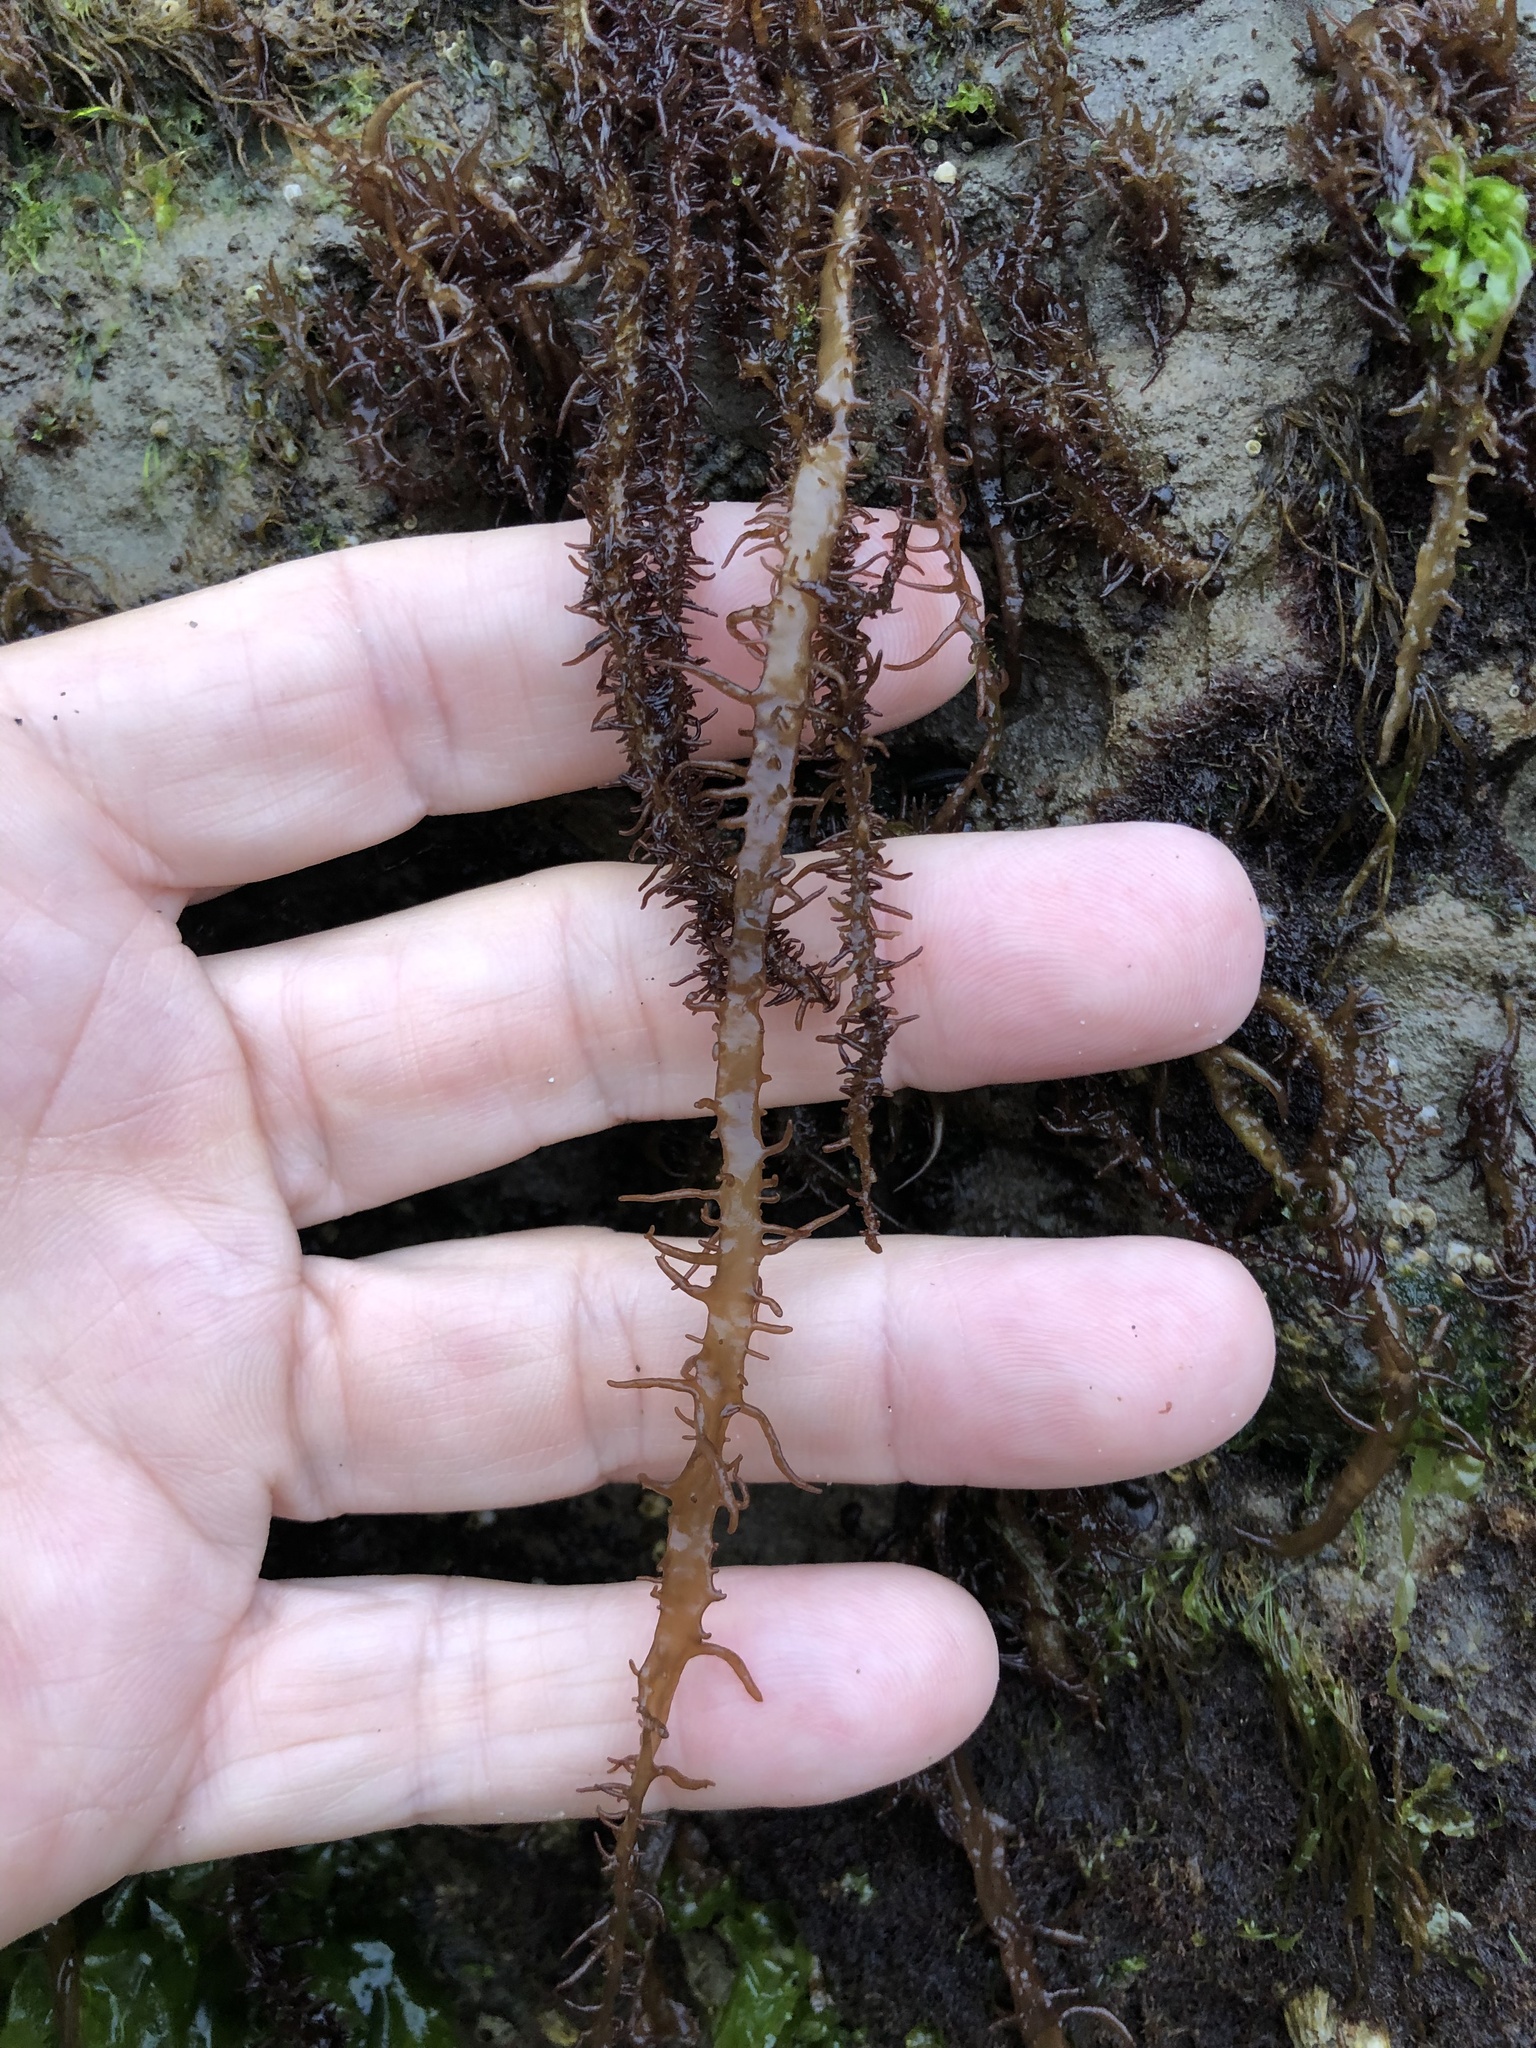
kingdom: Plantae
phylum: Rhodophyta
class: Florideophyceae
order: Nemaliales
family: Liagoraceae
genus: Cumagloia
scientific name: Cumagloia andersonii
